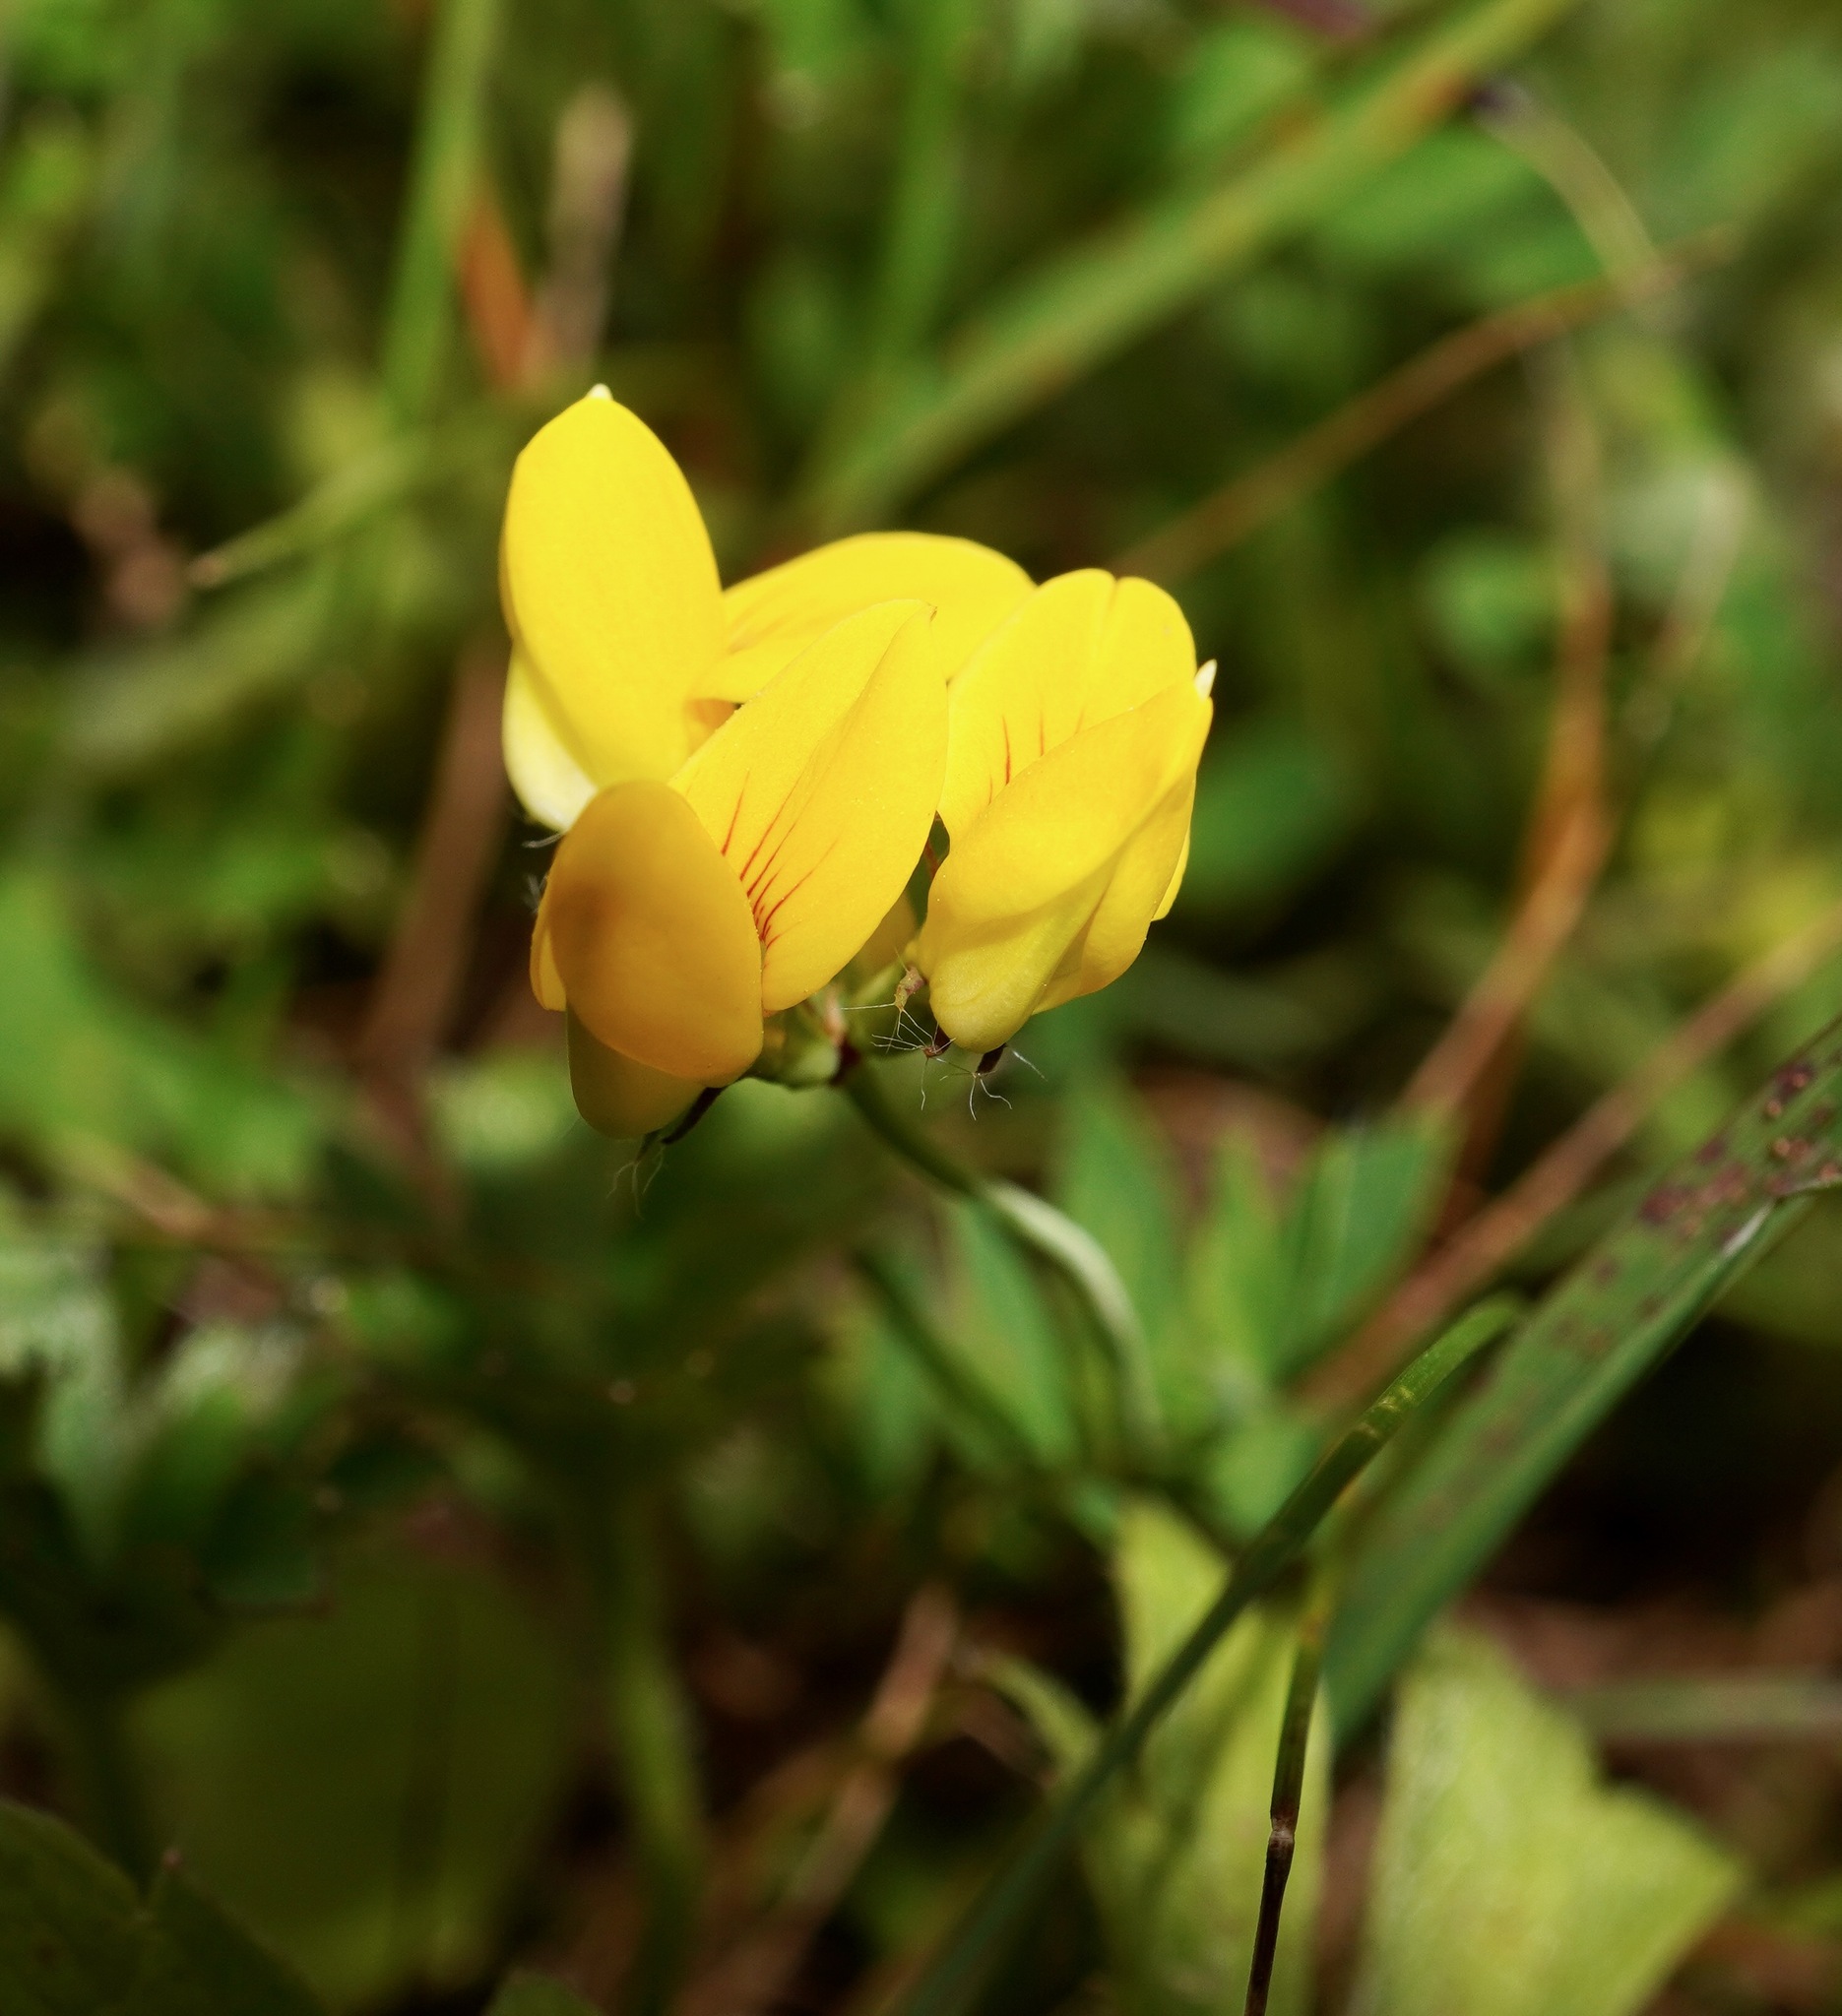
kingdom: Plantae
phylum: Tracheophyta
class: Magnoliopsida
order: Fabales
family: Fabaceae
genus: Lotus
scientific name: Lotus corniculatus
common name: Common bird's-foot-trefoil
